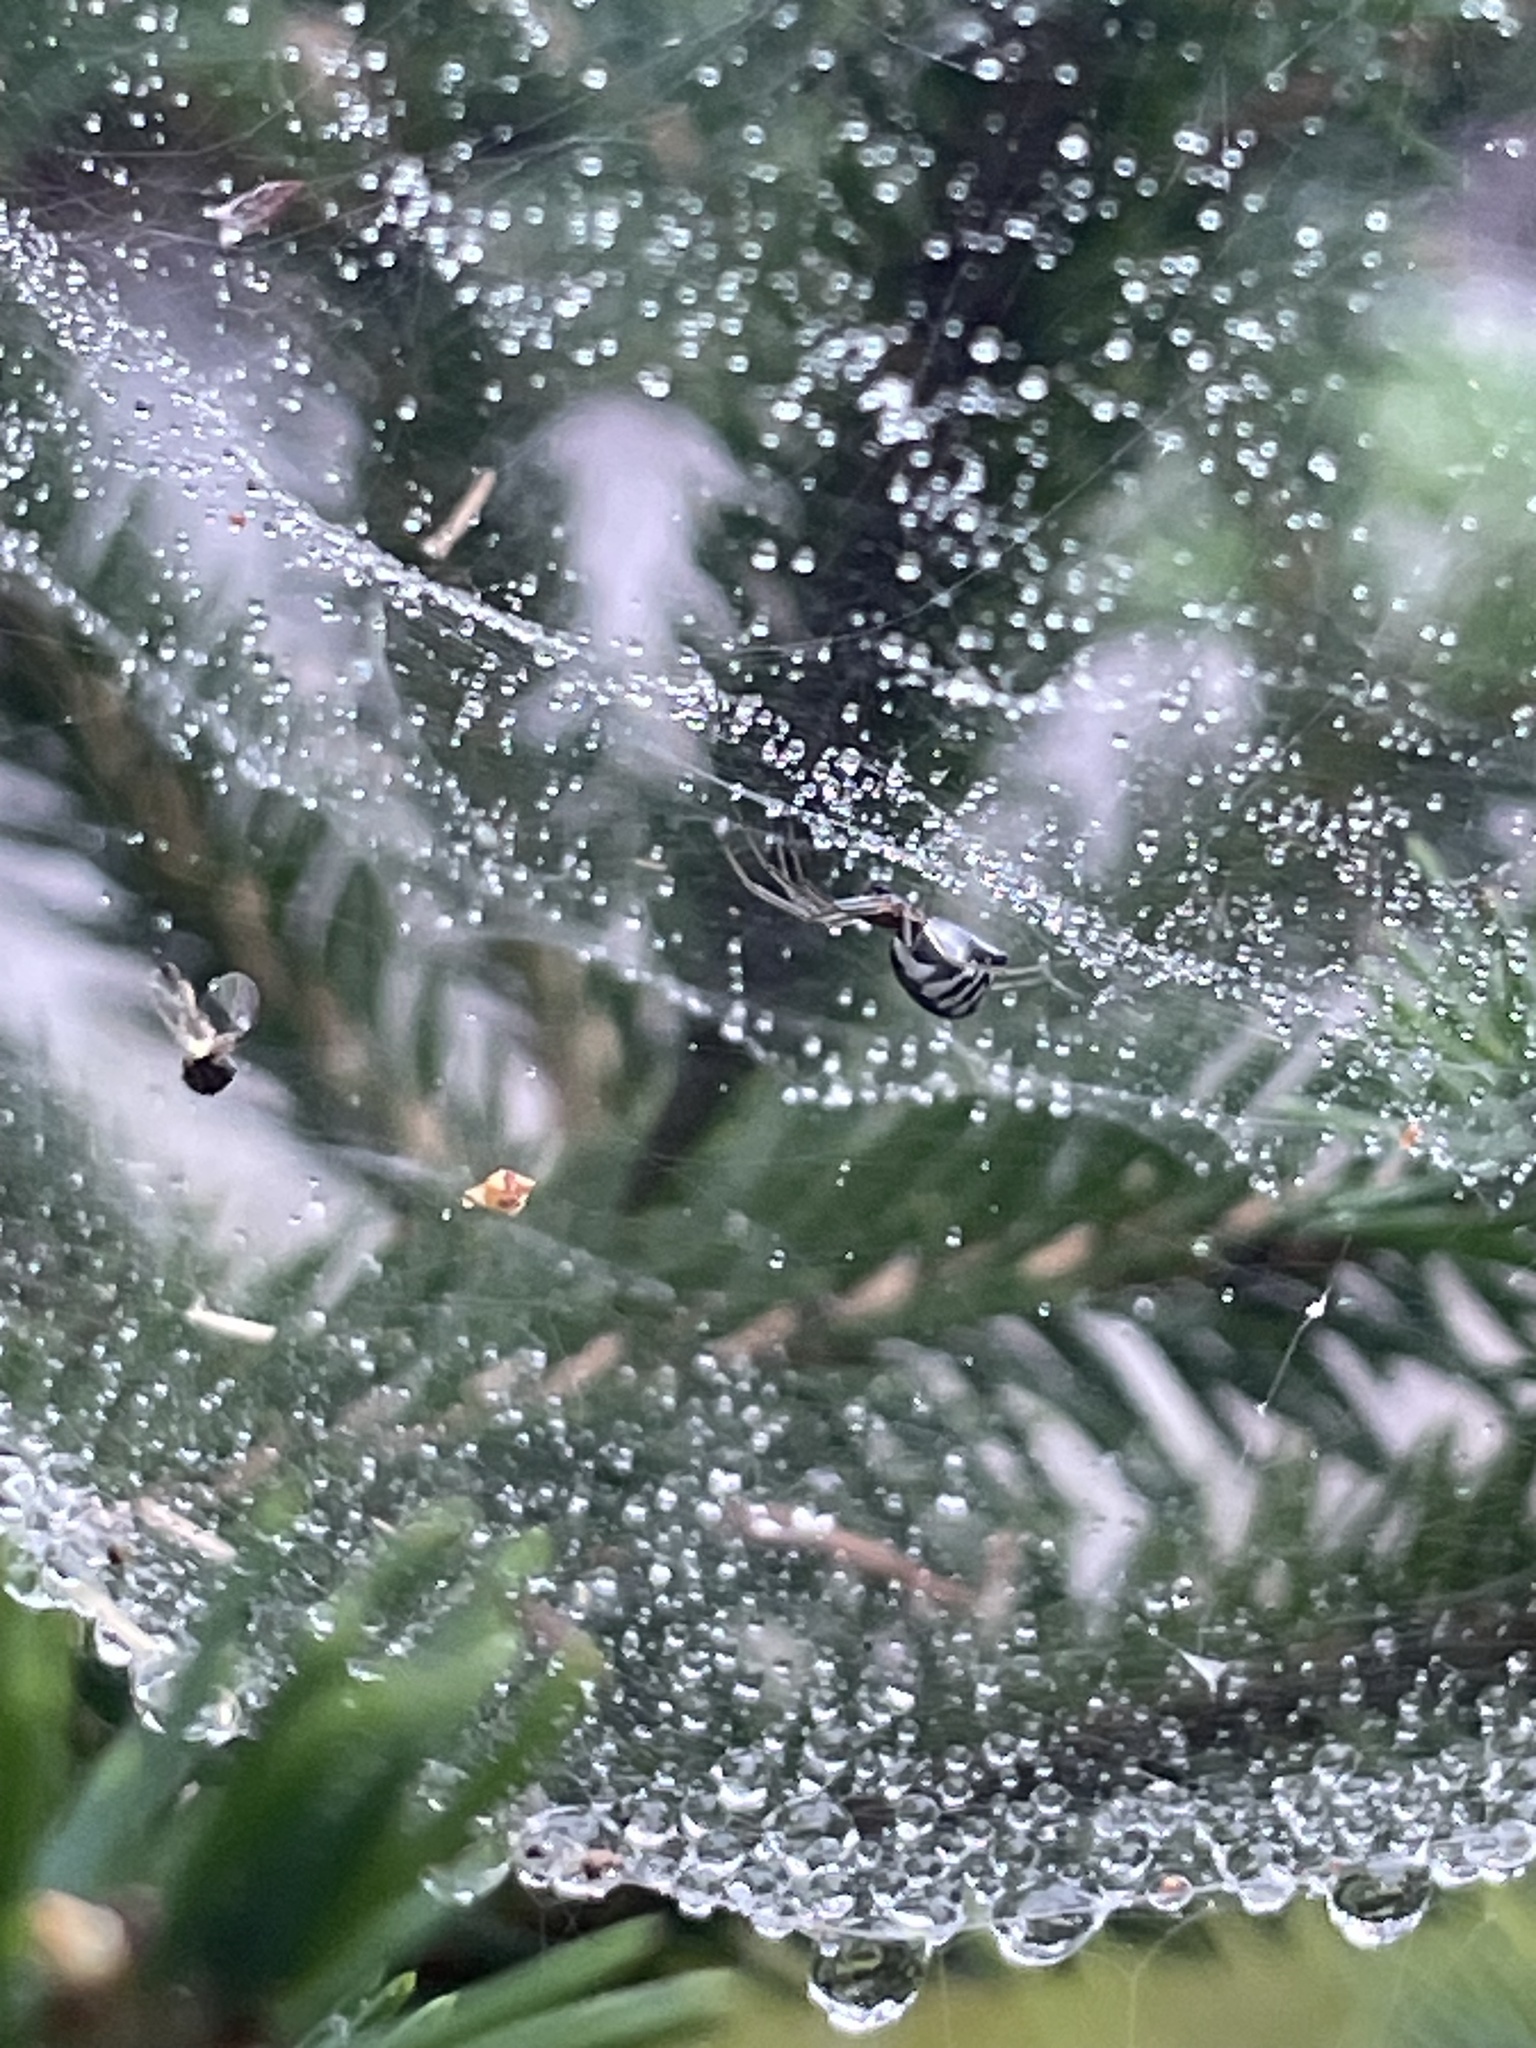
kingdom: Animalia
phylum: Arthropoda
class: Arachnida
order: Araneae
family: Linyphiidae
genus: Frontinella
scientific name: Frontinella pyramitela
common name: Bowl-and-doily spider
